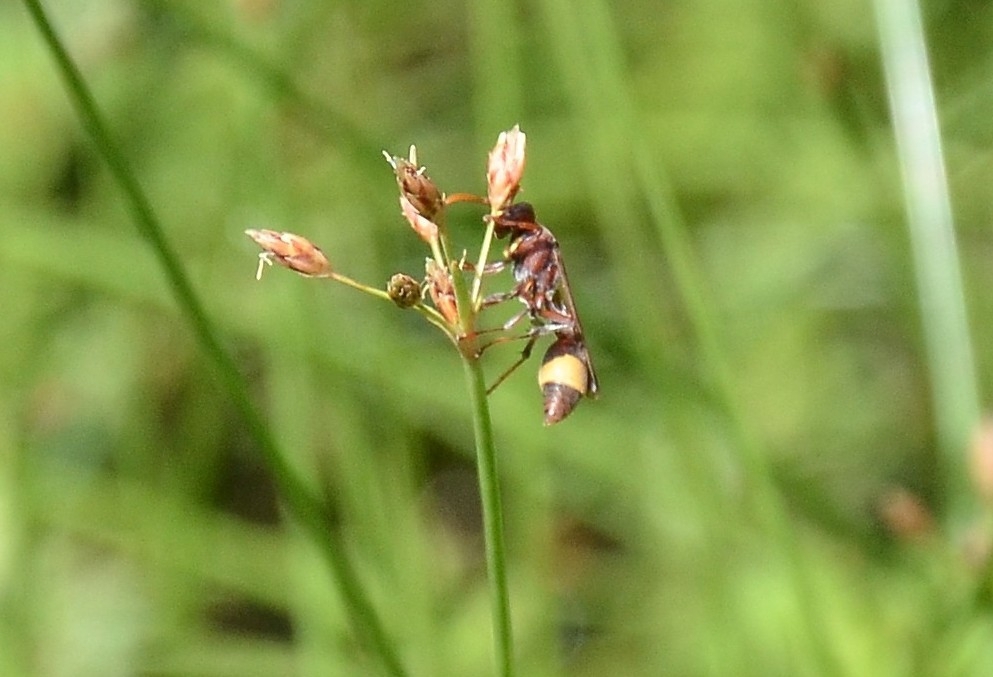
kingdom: Animalia
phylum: Arthropoda
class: Insecta
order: Hymenoptera
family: Vespidae
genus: Ropalidia
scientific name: Ropalidia
